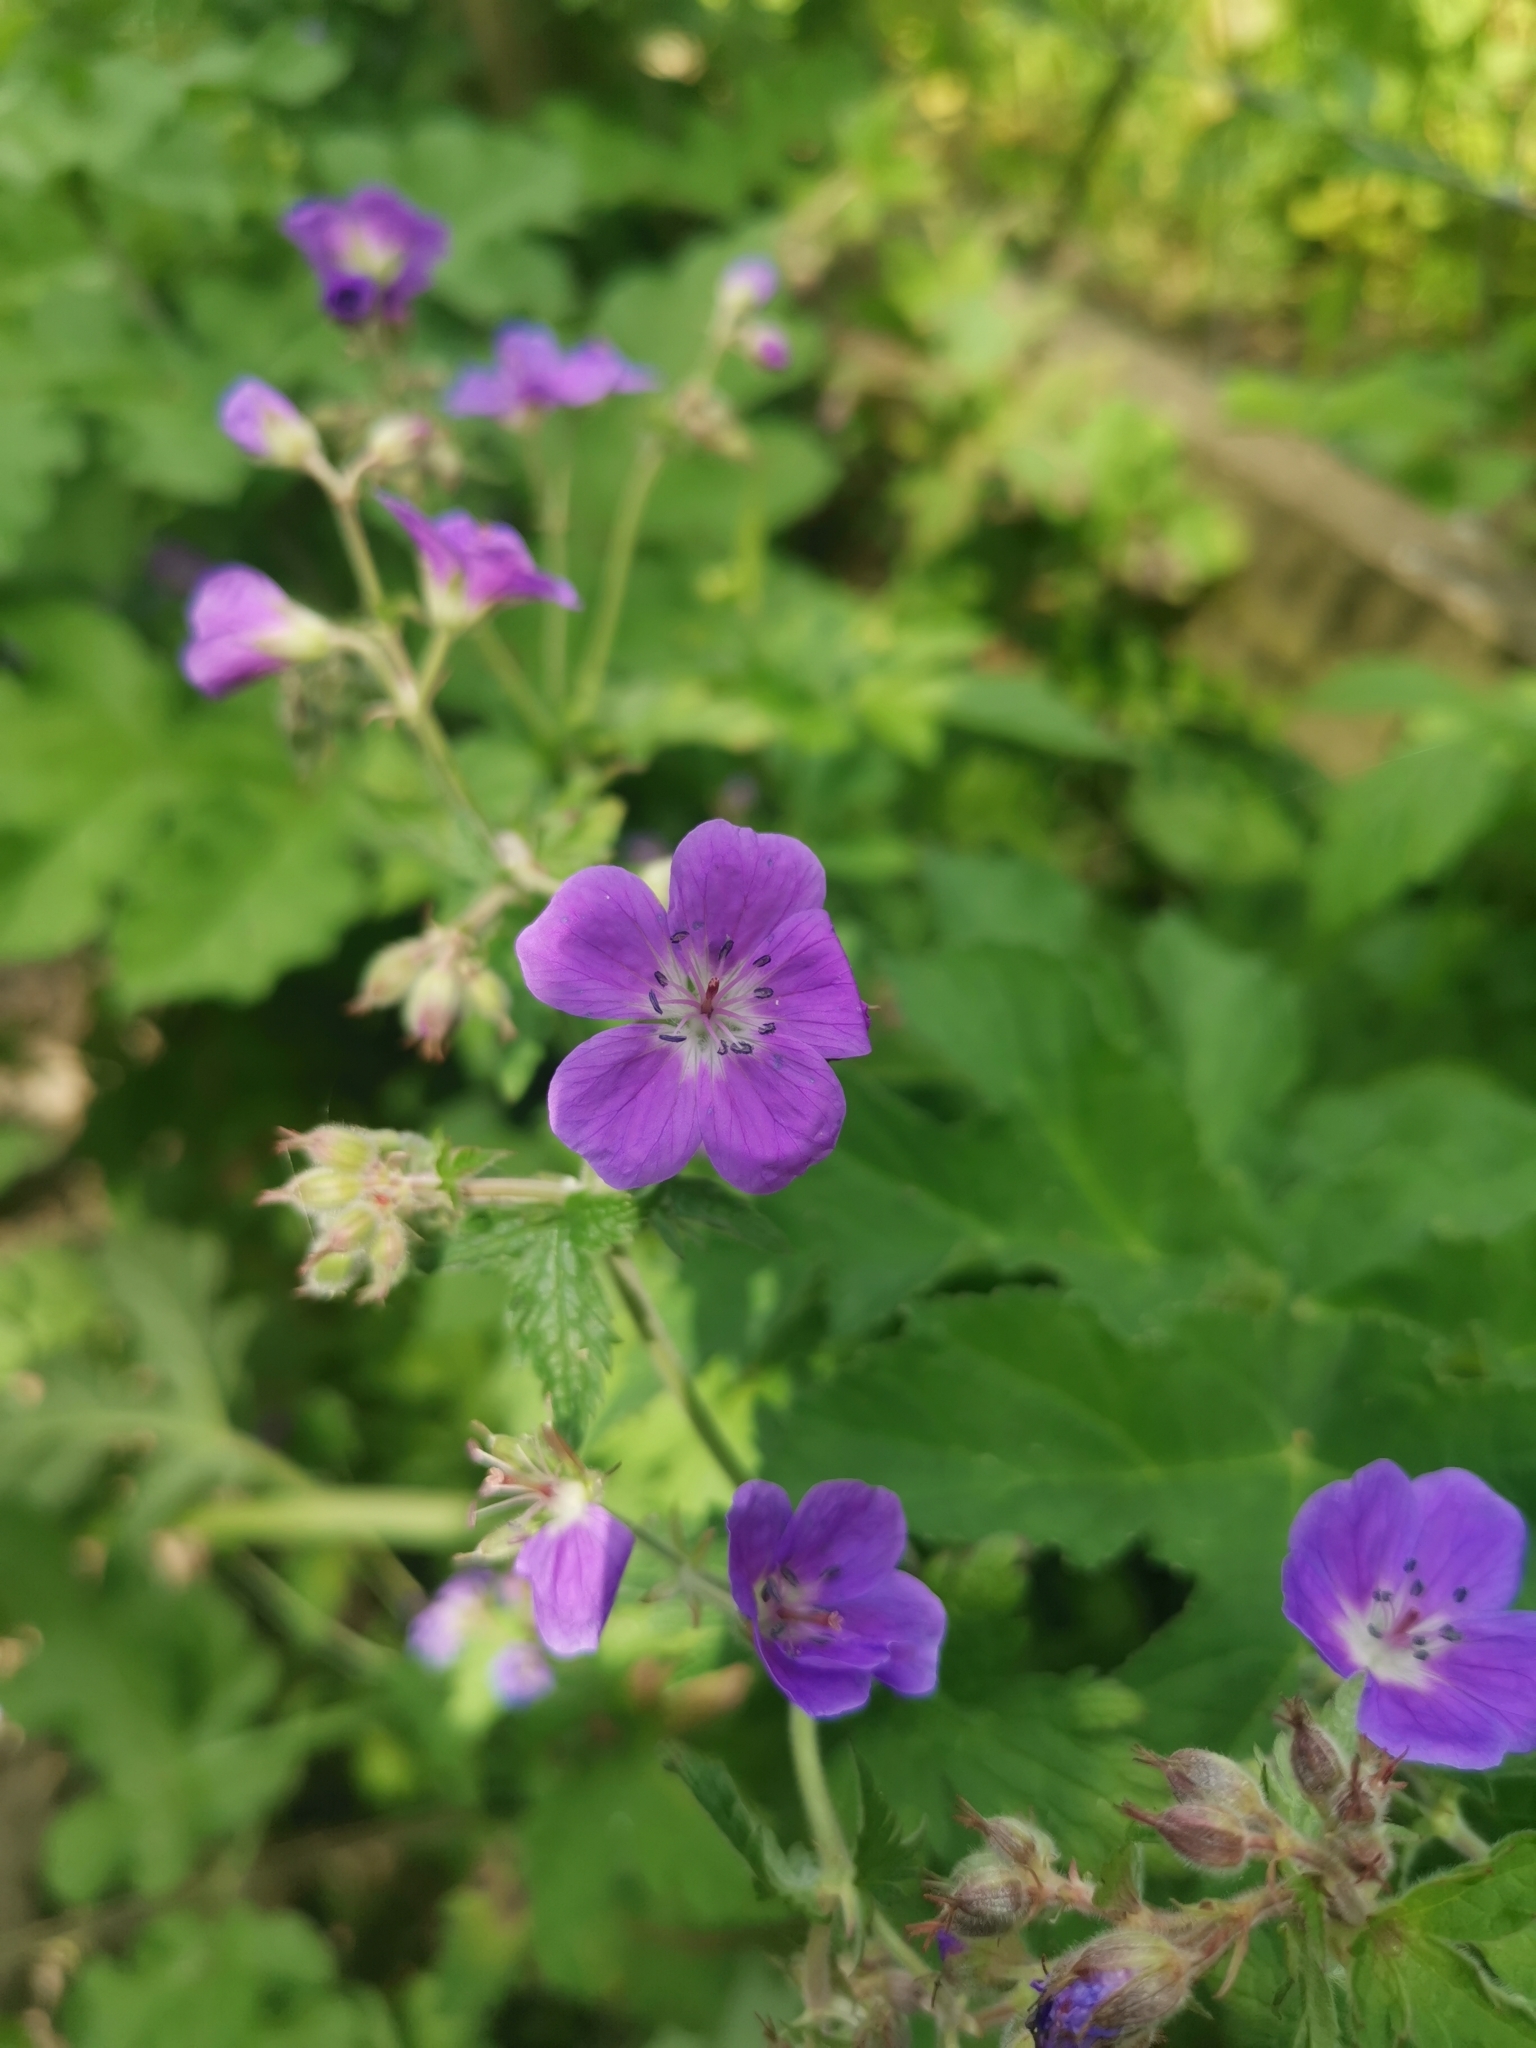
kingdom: Plantae
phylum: Tracheophyta
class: Magnoliopsida
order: Geraniales
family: Geraniaceae
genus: Geranium
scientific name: Geranium sylvaticum
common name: Wood crane's-bill
